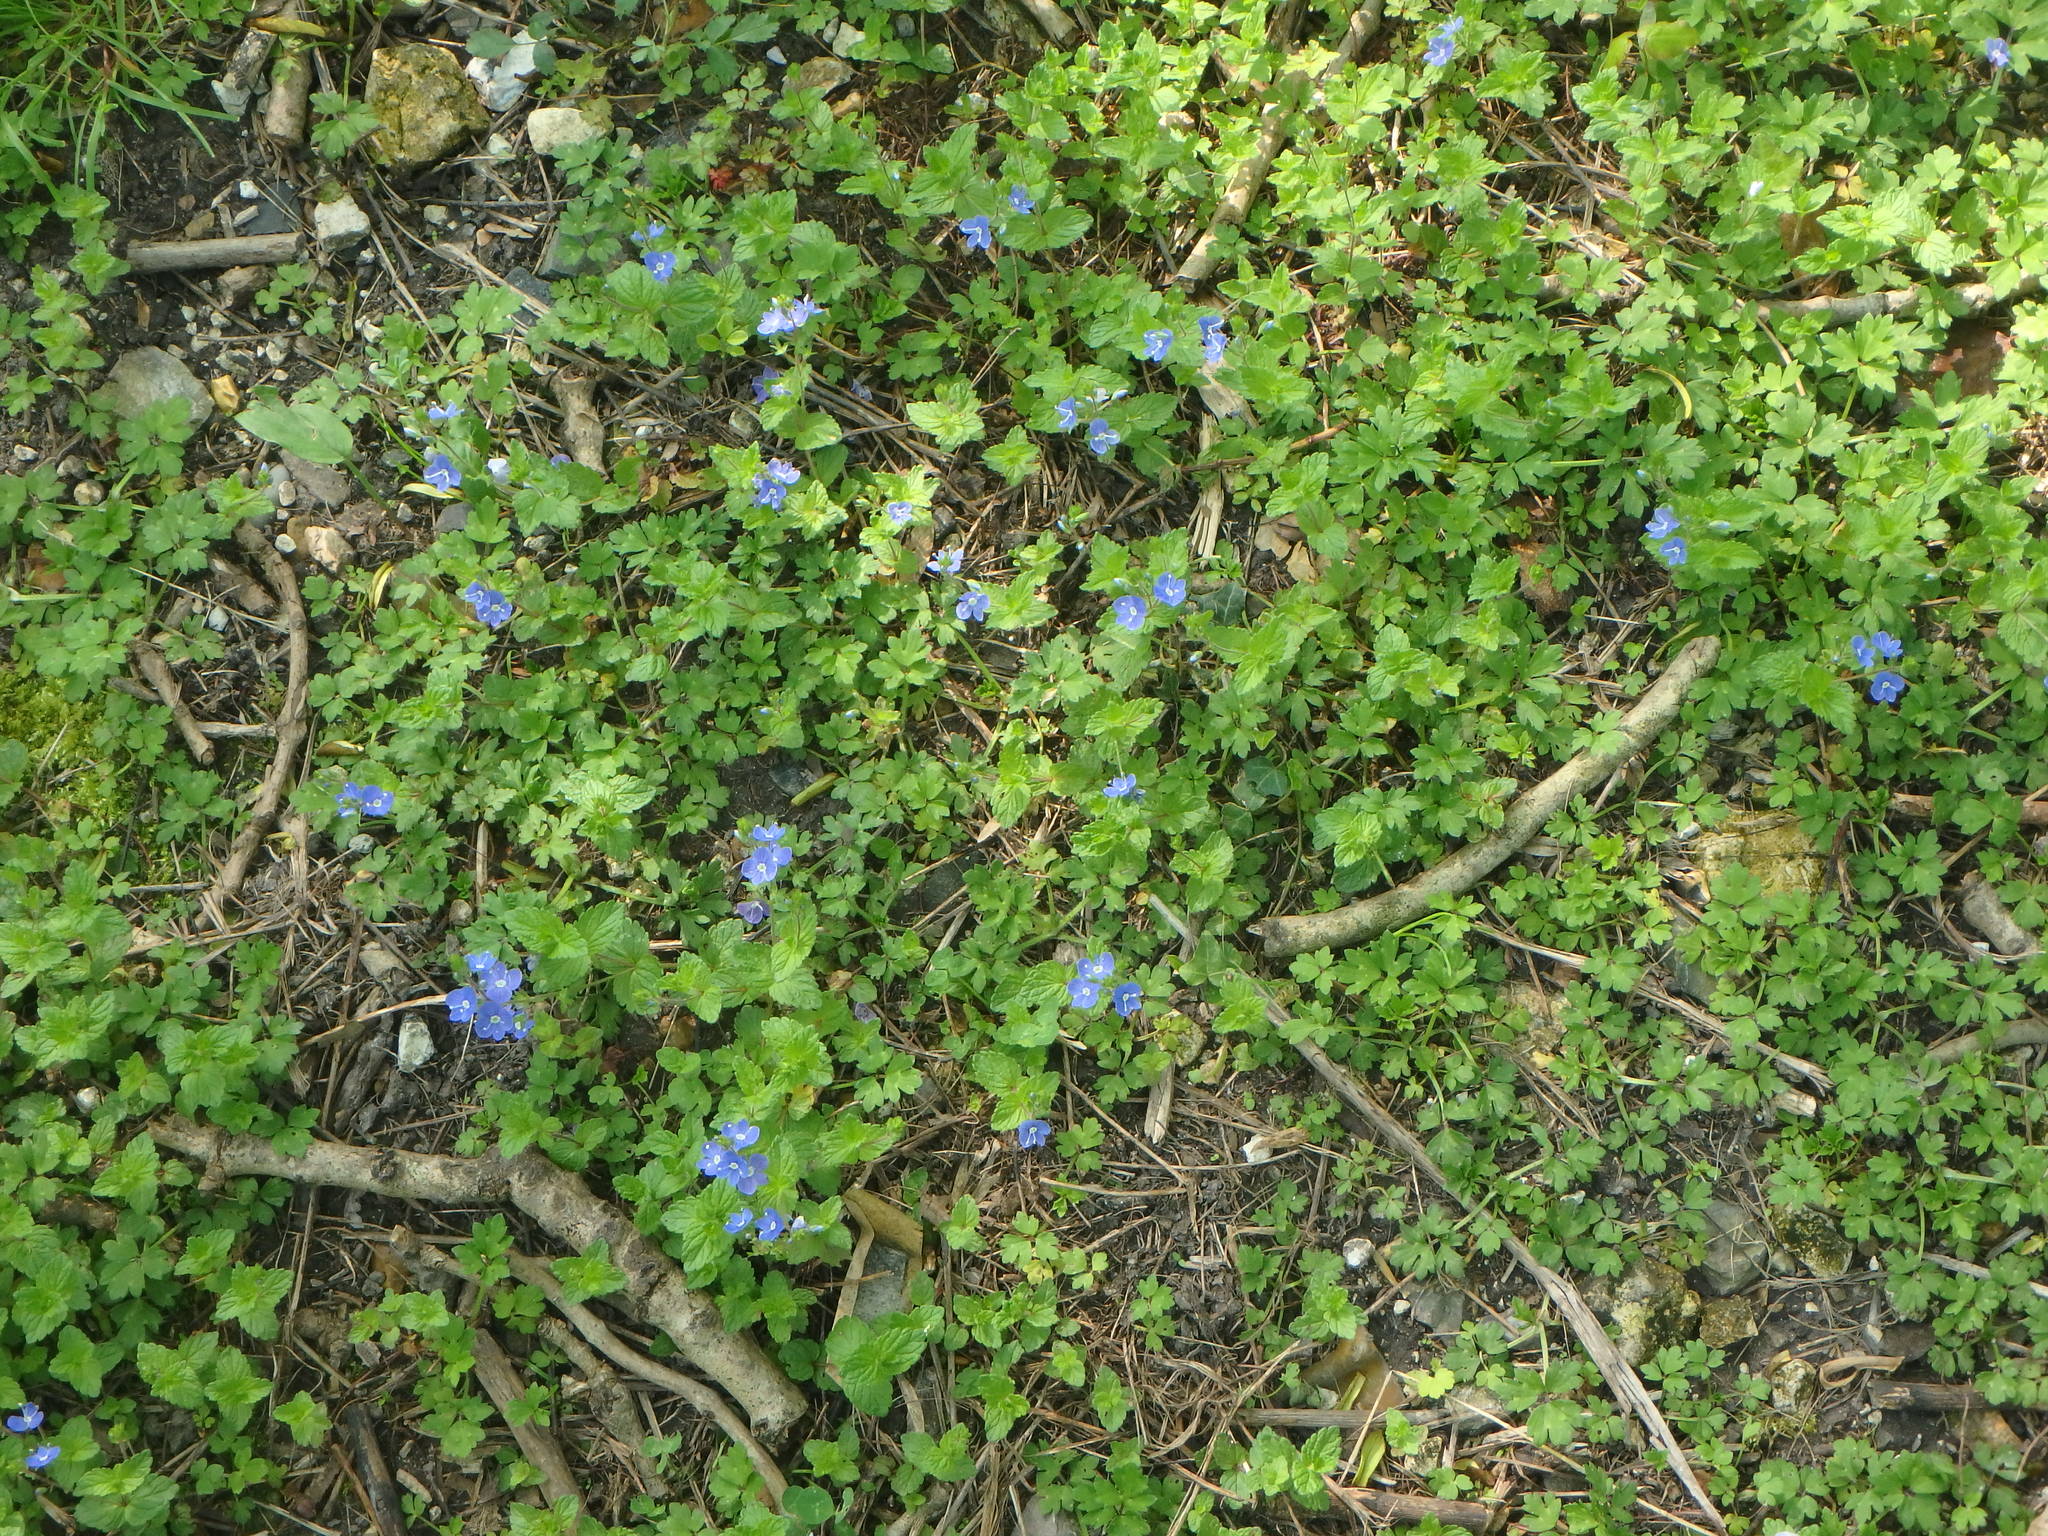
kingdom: Plantae
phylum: Tracheophyta
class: Magnoliopsida
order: Lamiales
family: Plantaginaceae
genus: Veronica
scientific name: Veronica chamaedrys
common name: Germander speedwell
